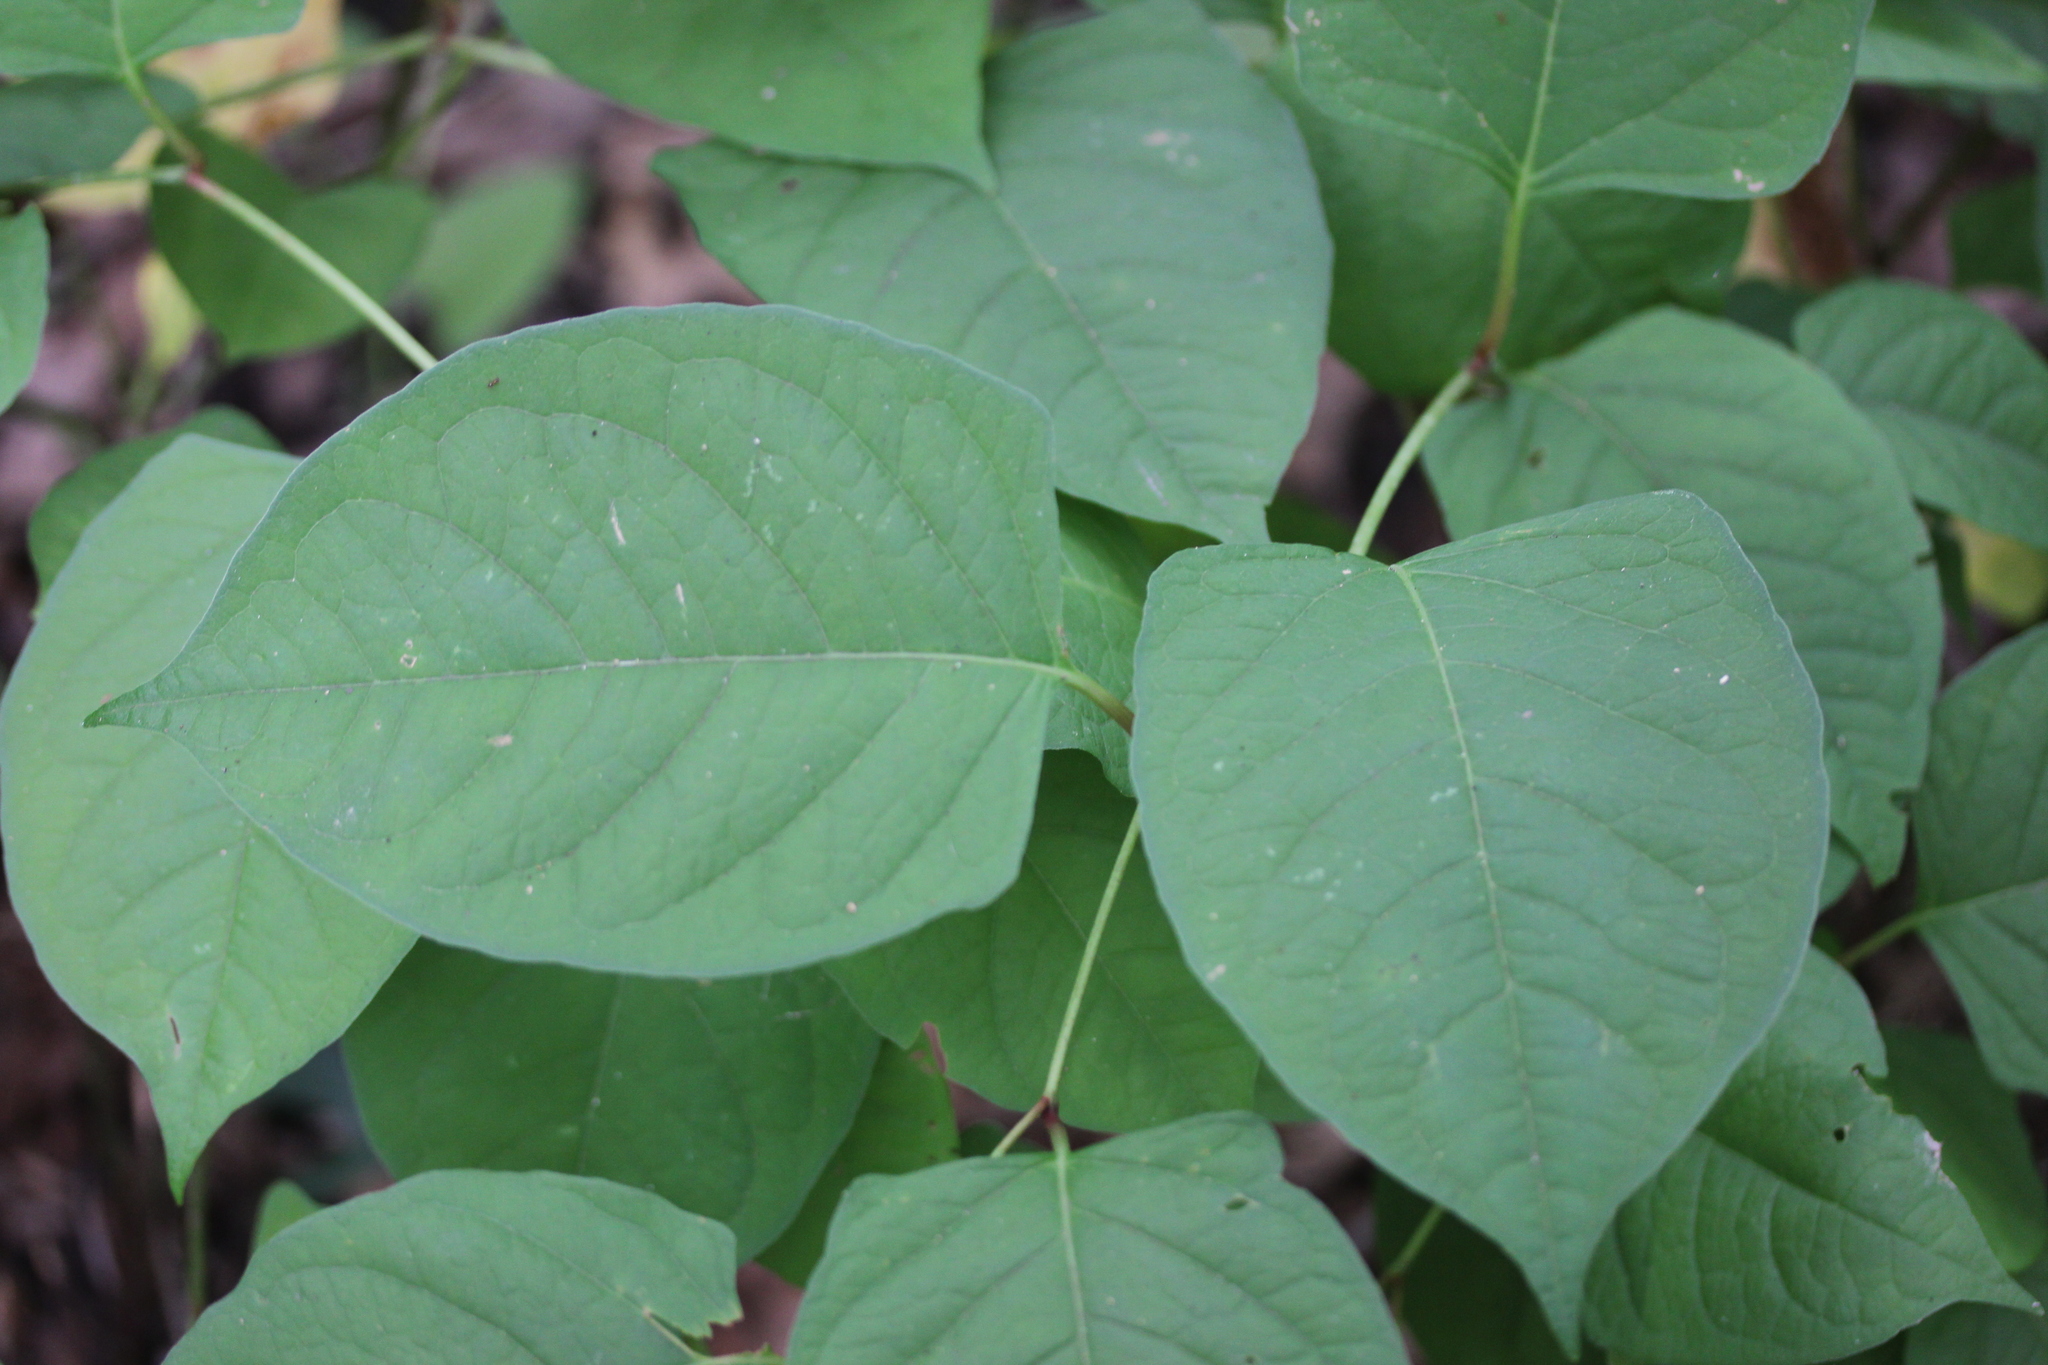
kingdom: Plantae
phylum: Tracheophyta
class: Magnoliopsida
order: Caryophyllales
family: Polygonaceae
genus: Reynoutria
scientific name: Reynoutria japonica
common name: Japanese knotweed
